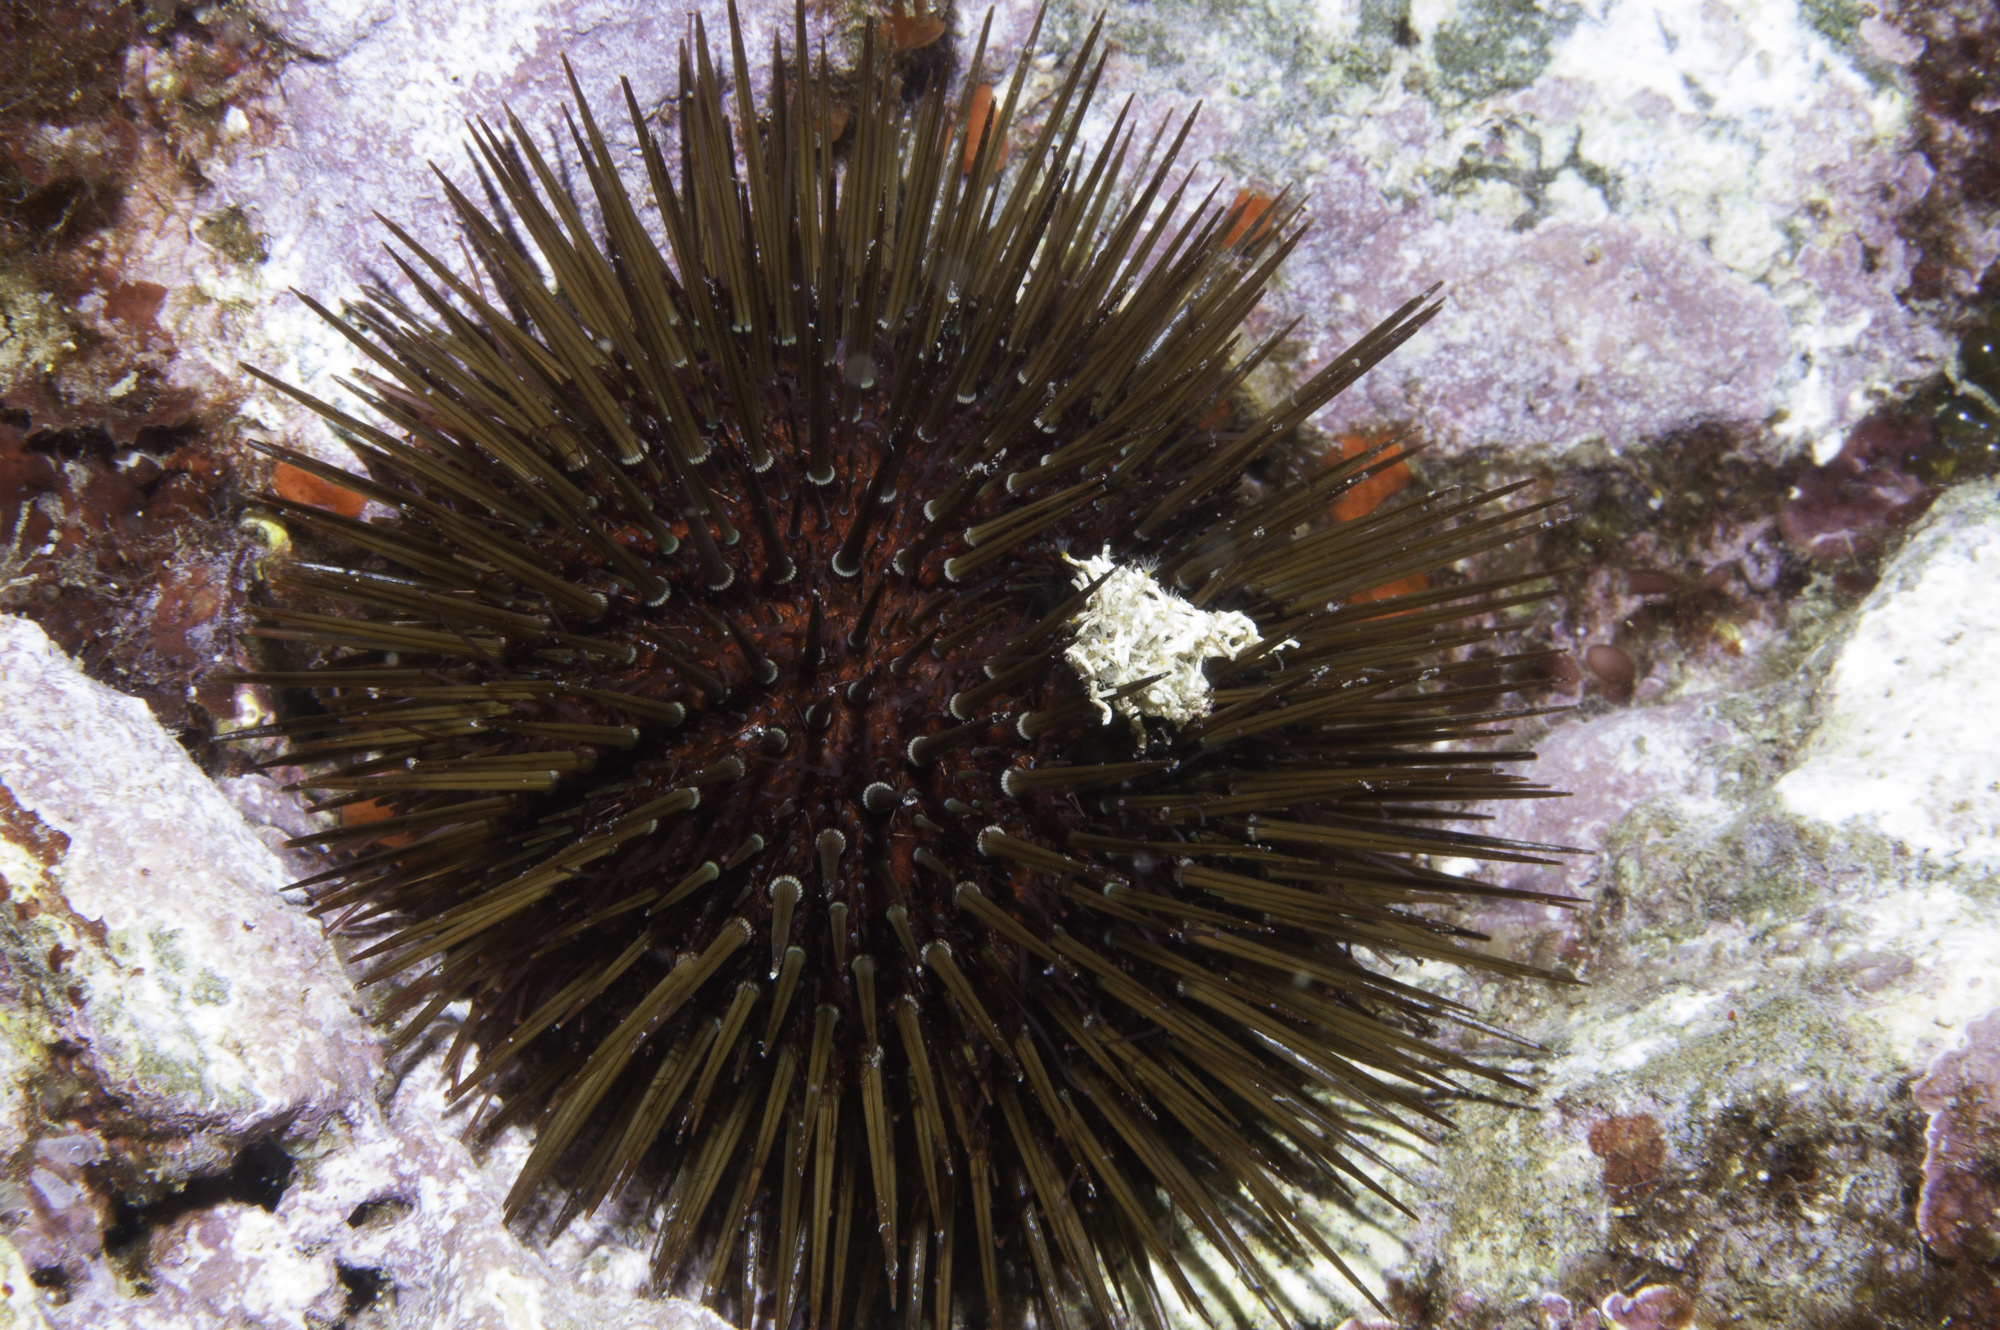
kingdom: Animalia
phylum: Echinodermata
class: Echinoidea
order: Camarodonta
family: Parechinidae
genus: Paracentrotus
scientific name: Paracentrotus lividus
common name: Purple sea urchin
